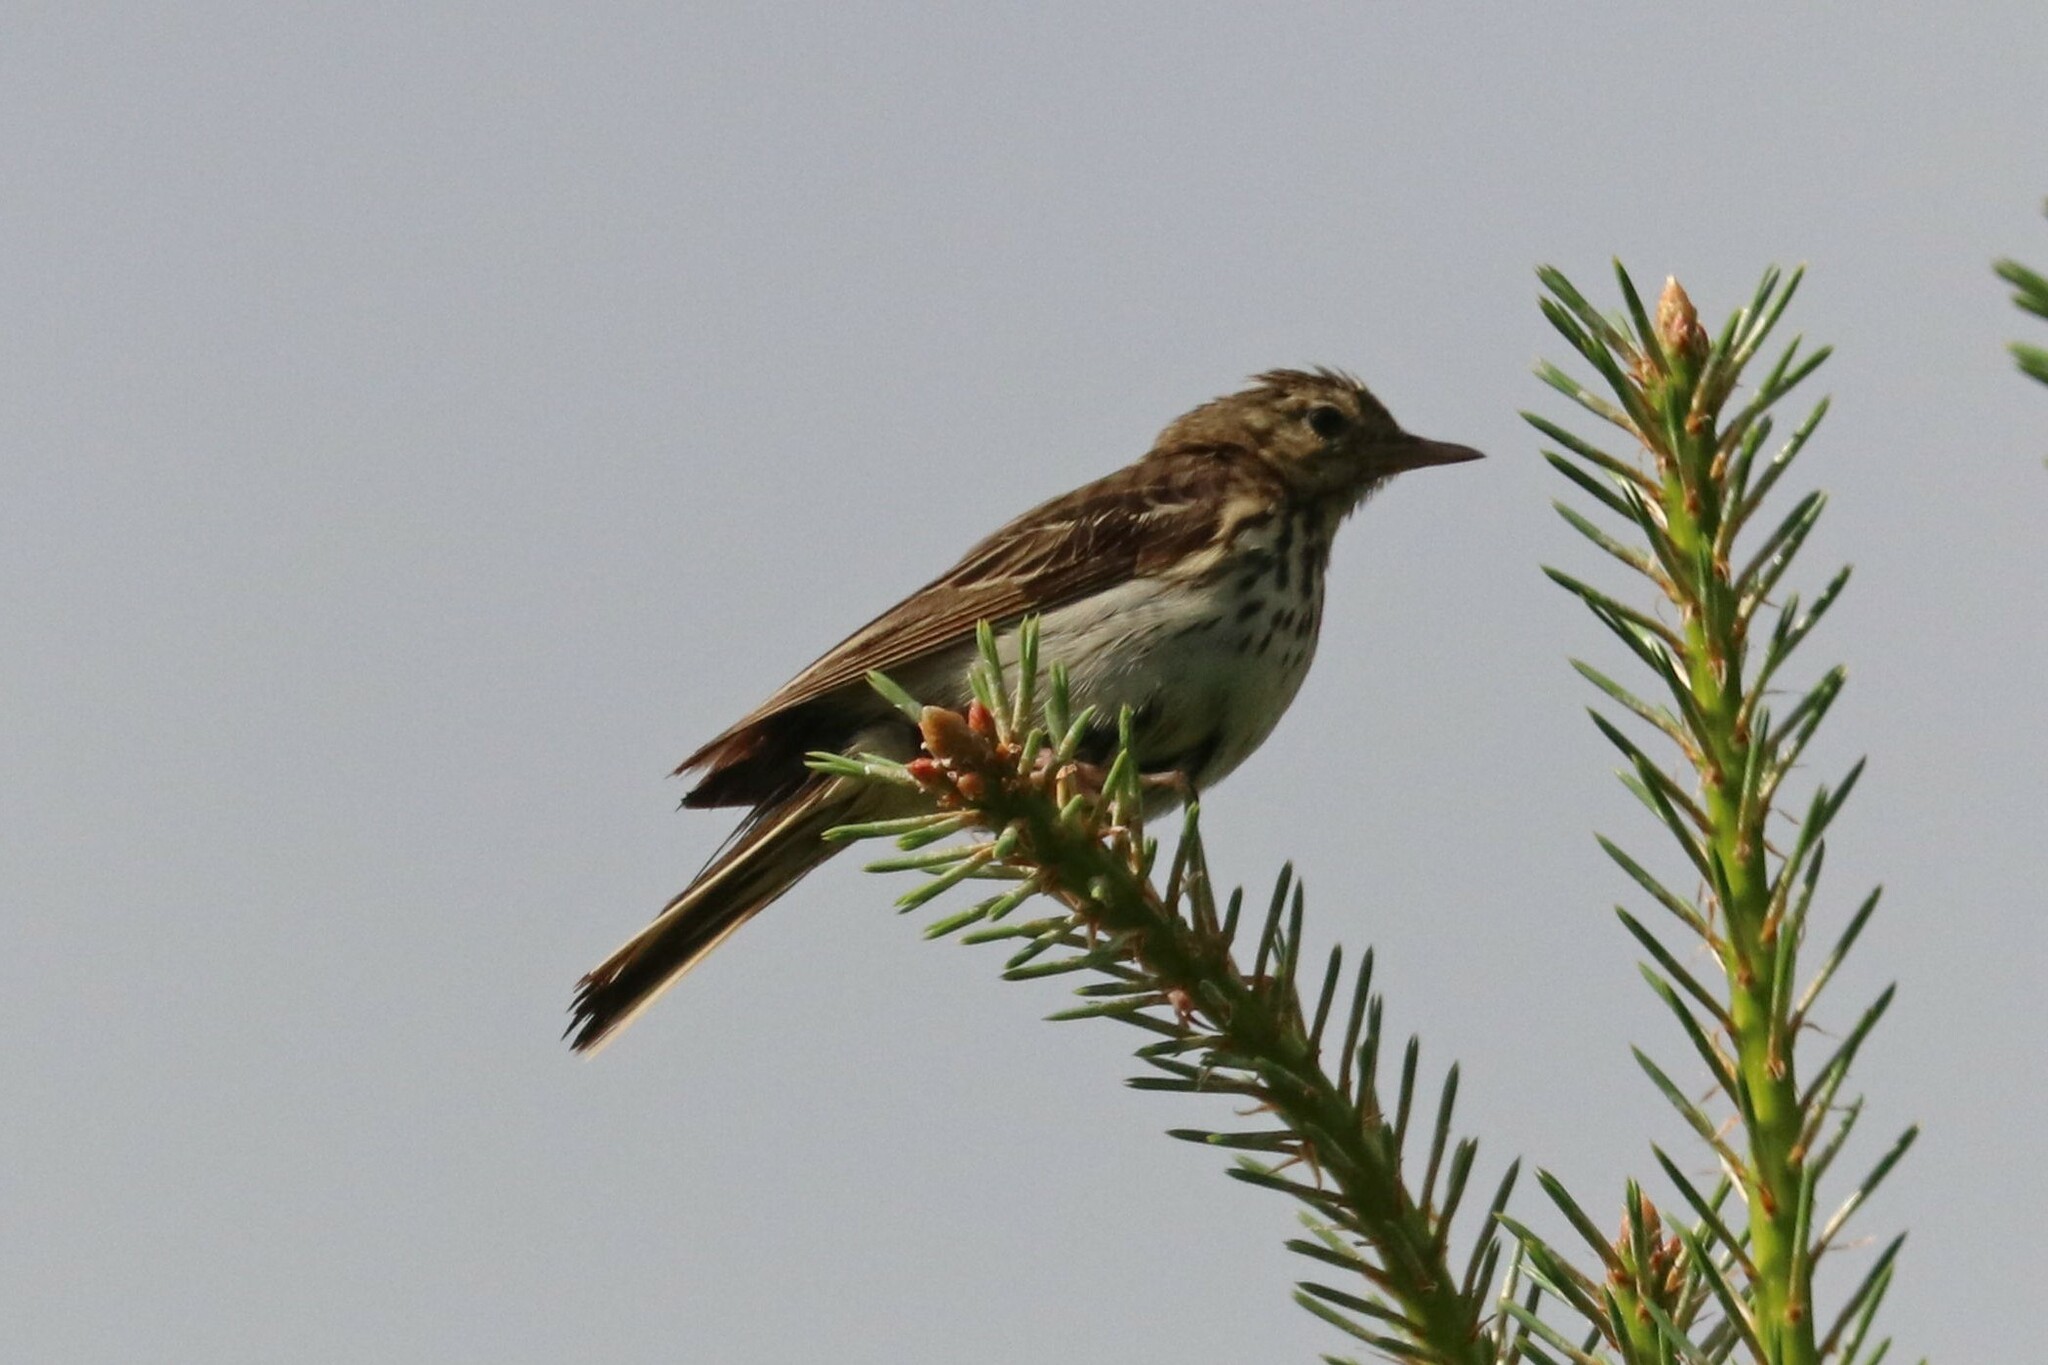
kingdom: Animalia
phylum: Chordata
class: Aves
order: Passeriformes
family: Motacillidae
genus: Anthus
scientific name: Anthus trivialis
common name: Tree pipit
